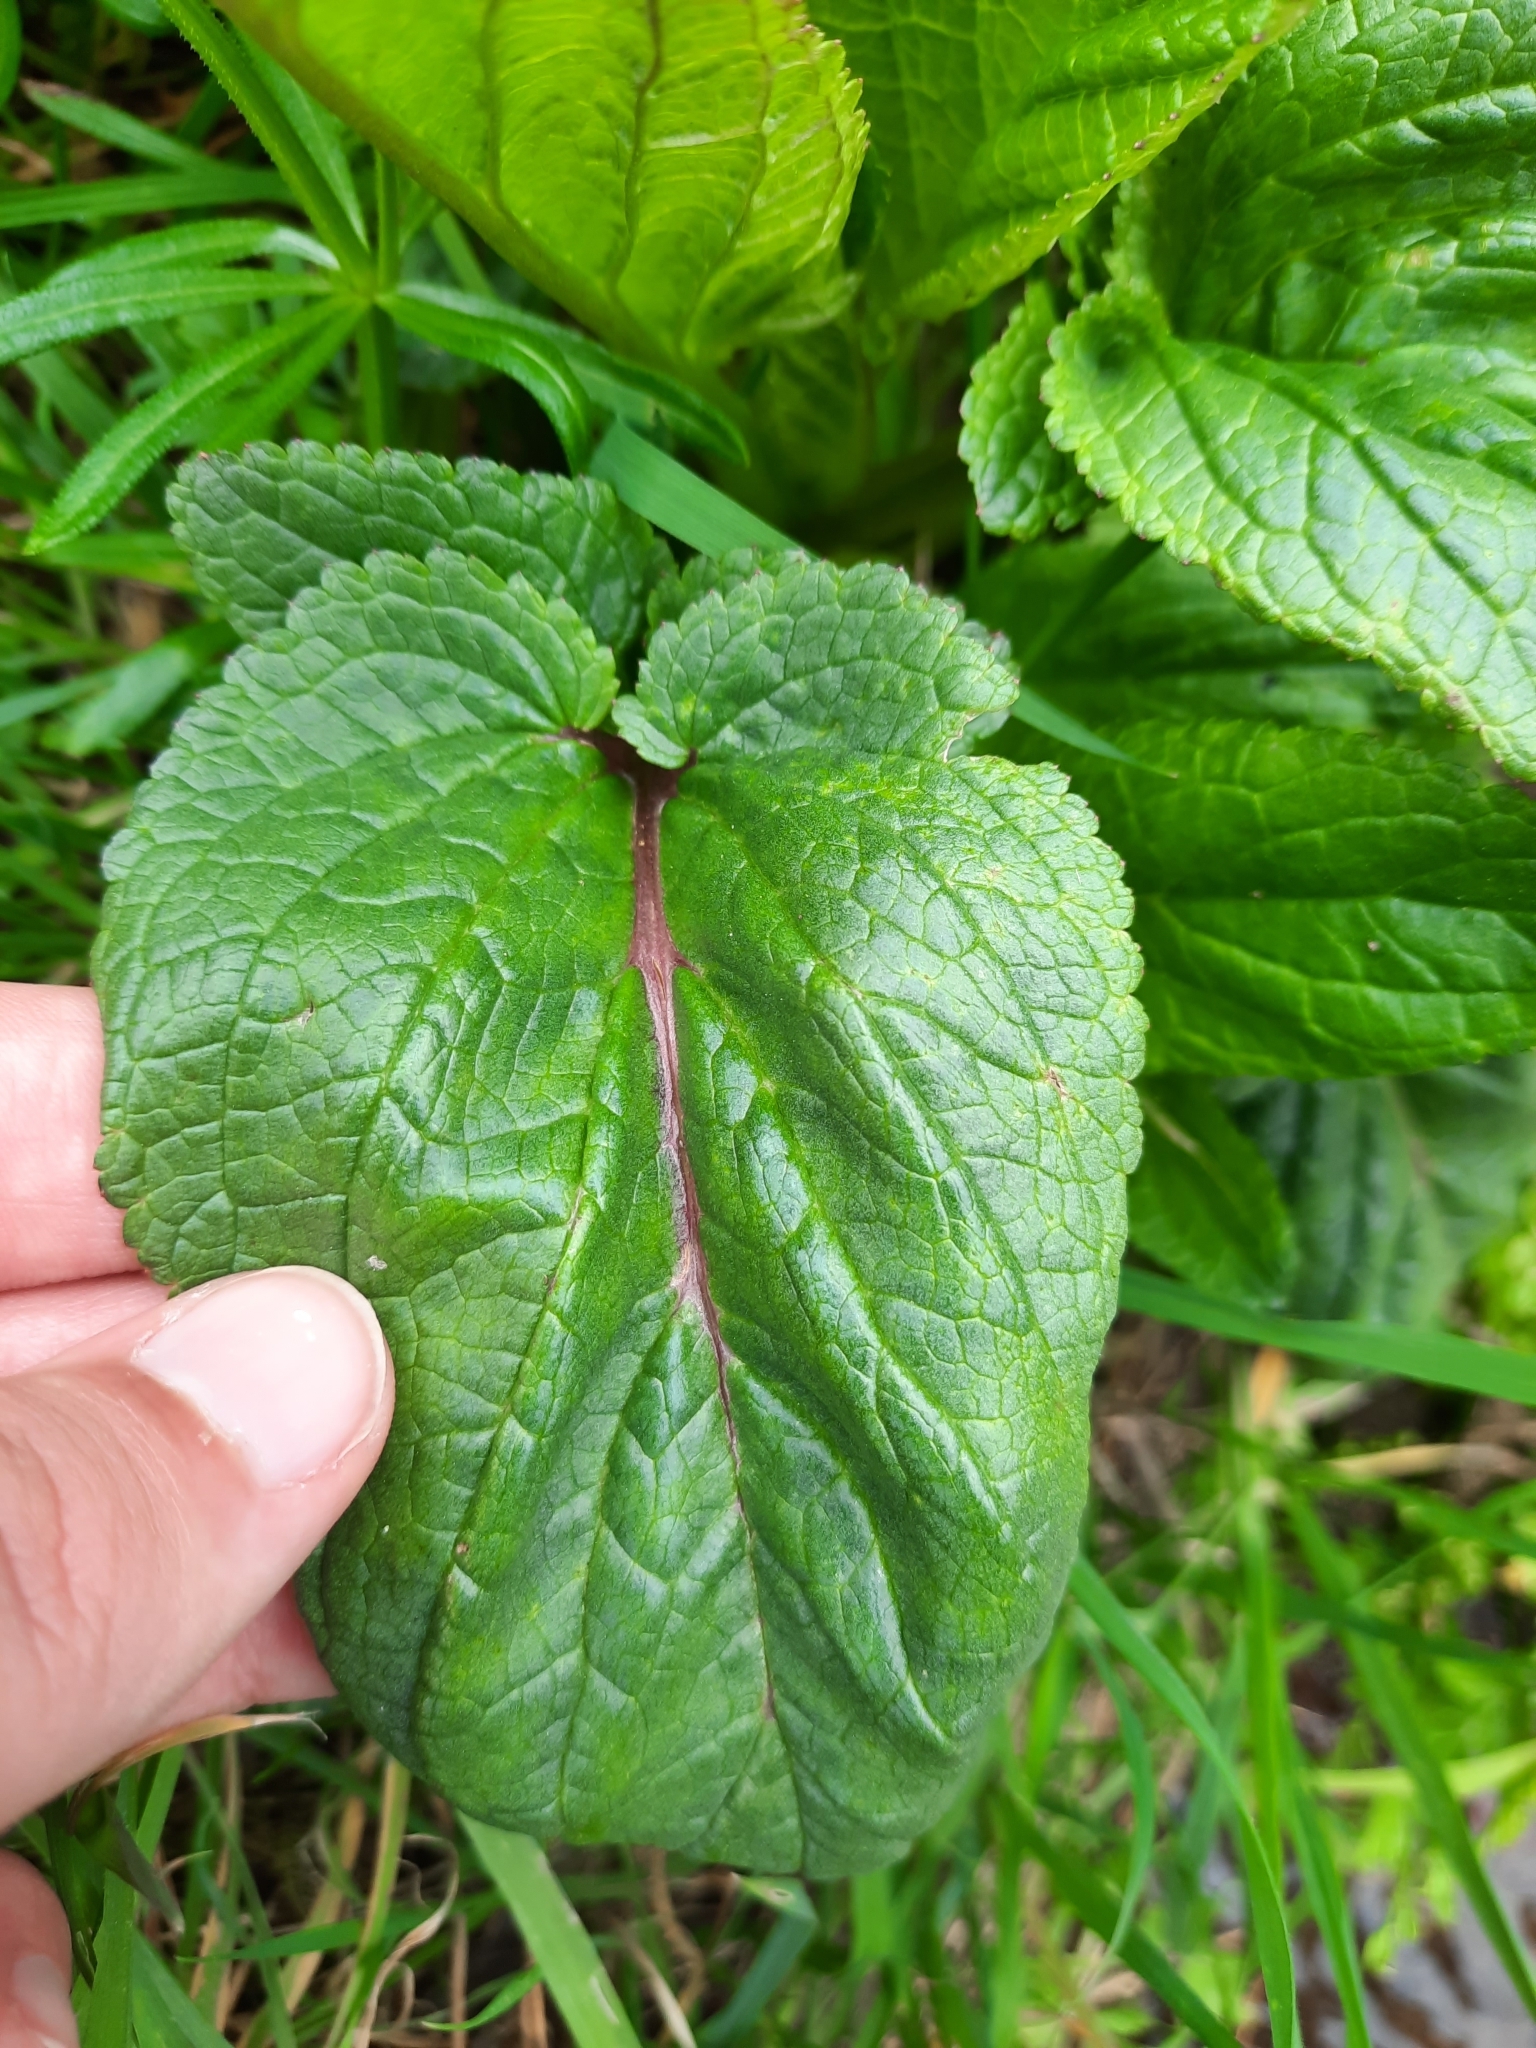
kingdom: Plantae
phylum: Tracheophyta
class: Magnoliopsida
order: Lamiales
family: Scrophulariaceae
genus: Scrophularia
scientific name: Scrophularia auriculata
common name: Water betony
